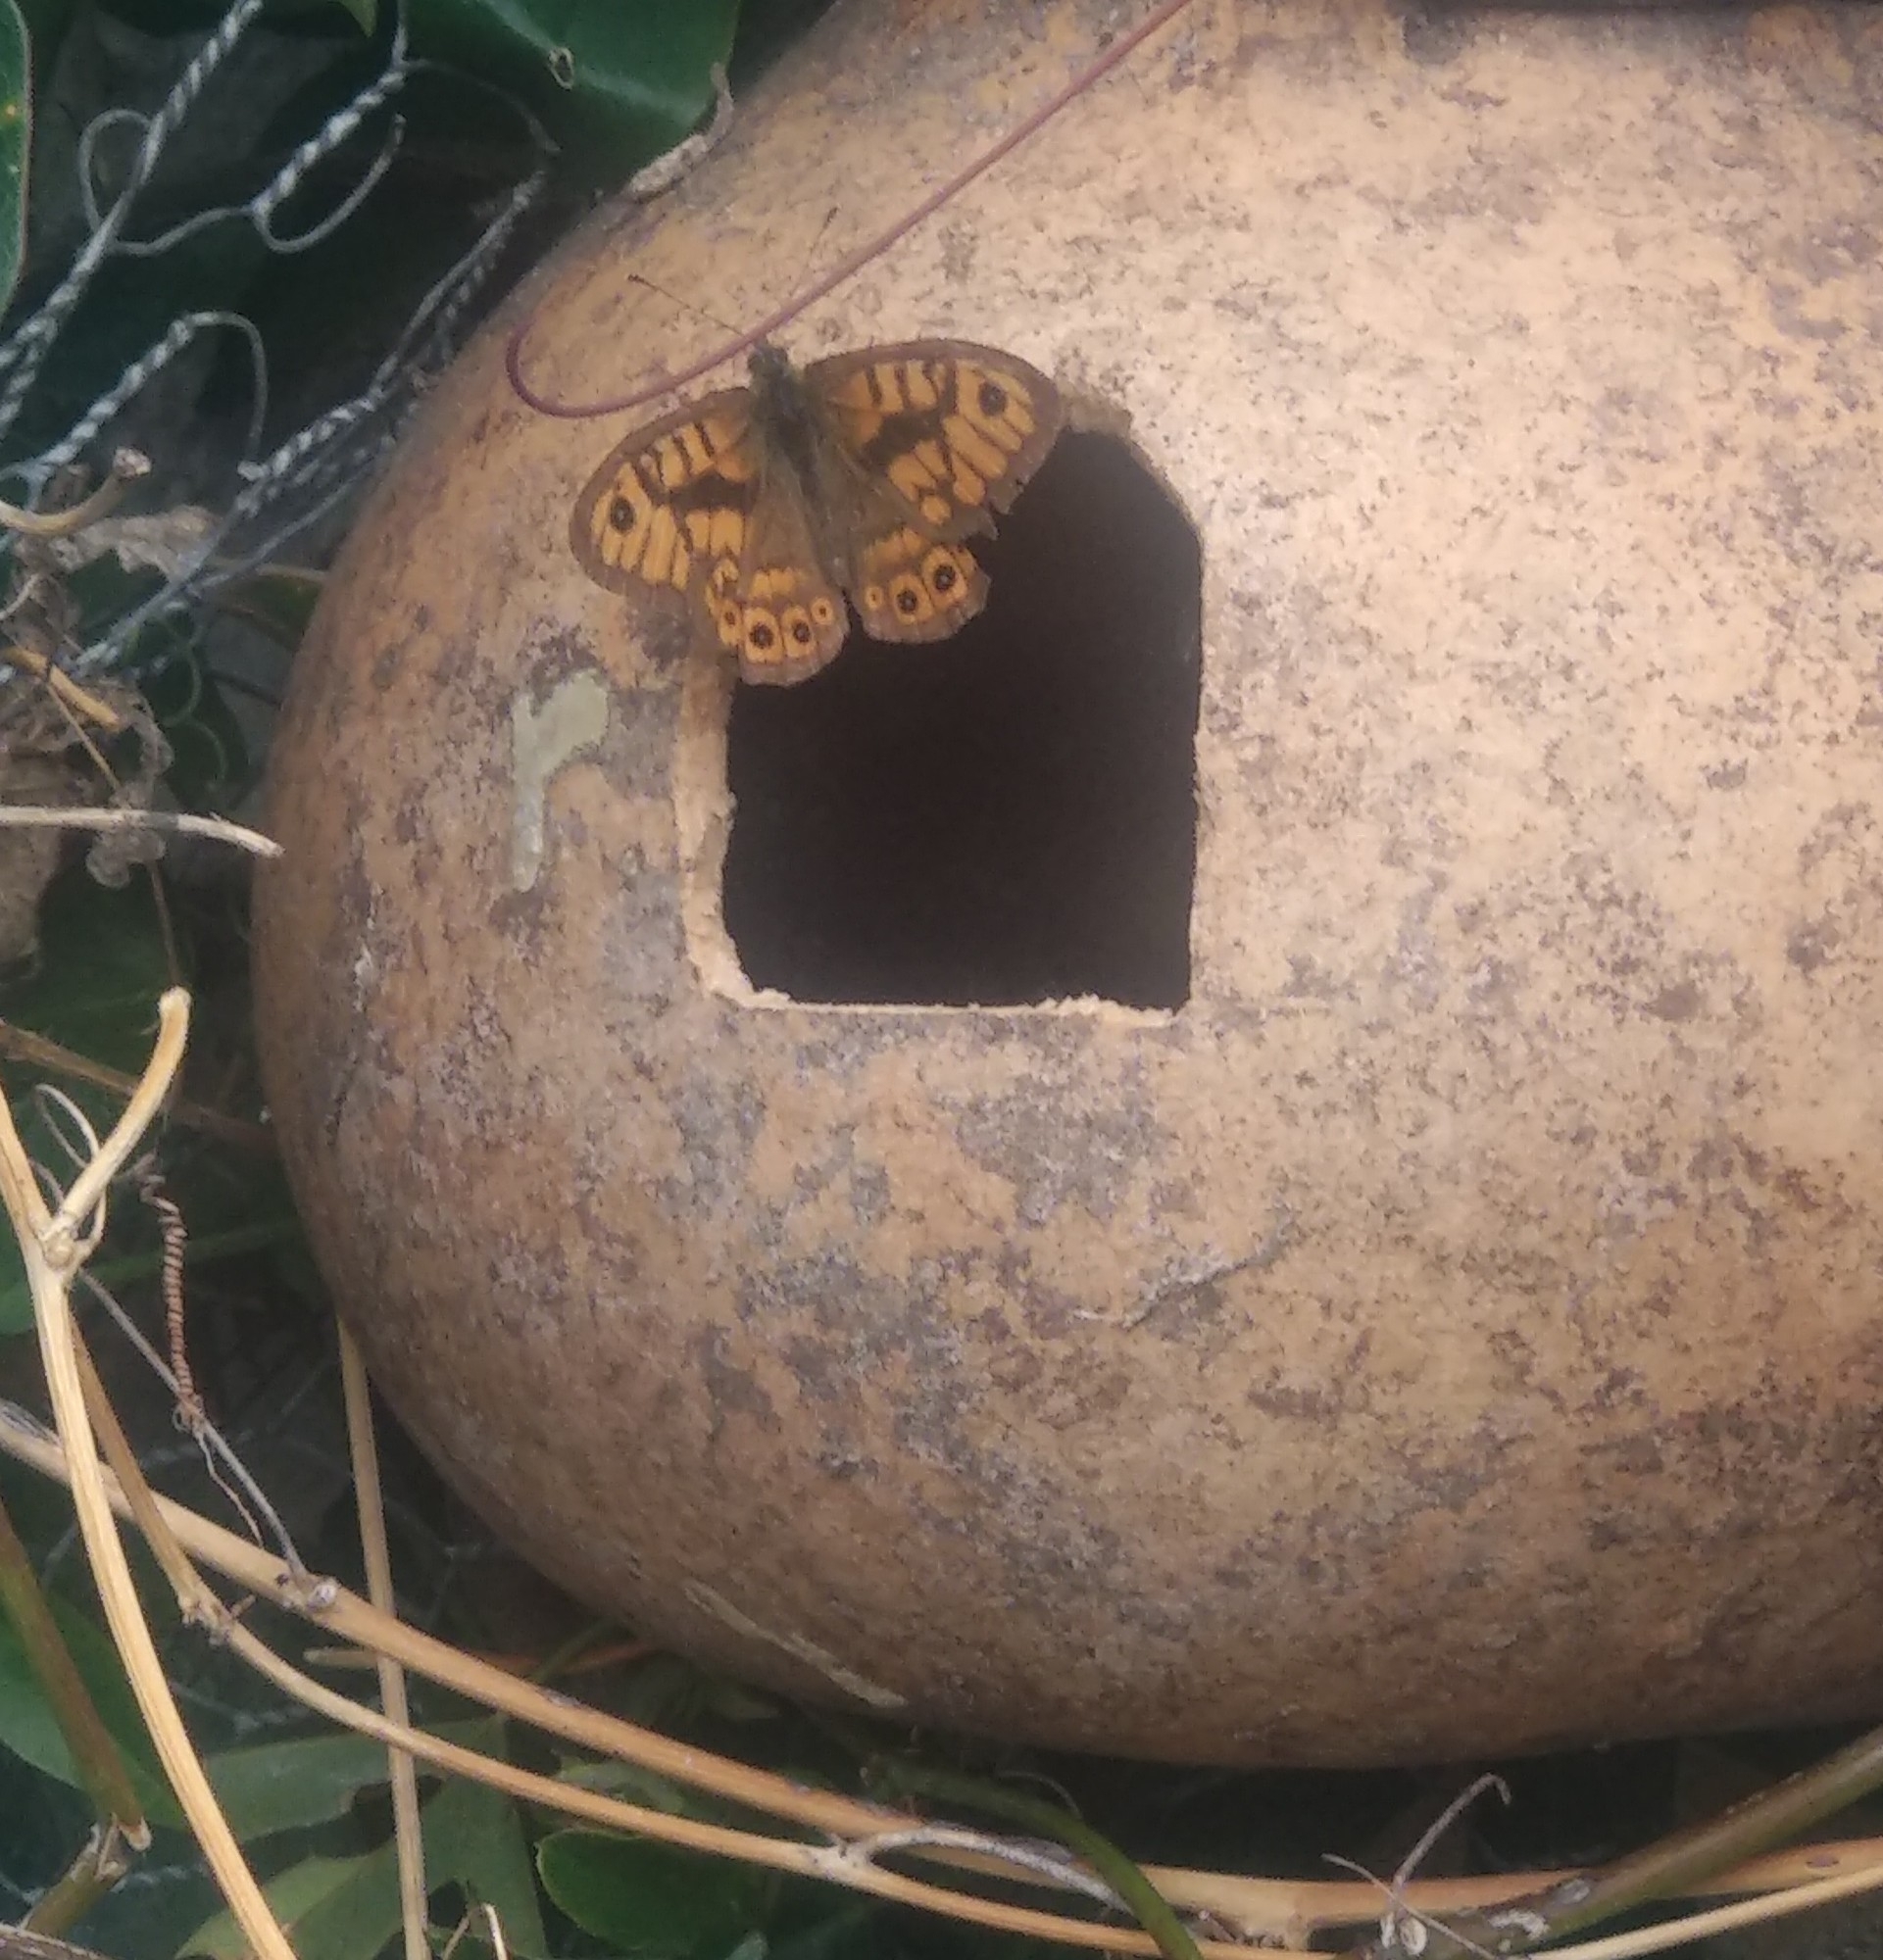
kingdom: Animalia
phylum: Arthropoda
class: Insecta
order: Lepidoptera
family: Nymphalidae
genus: Pararge
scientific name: Pararge Lasiommata megera
